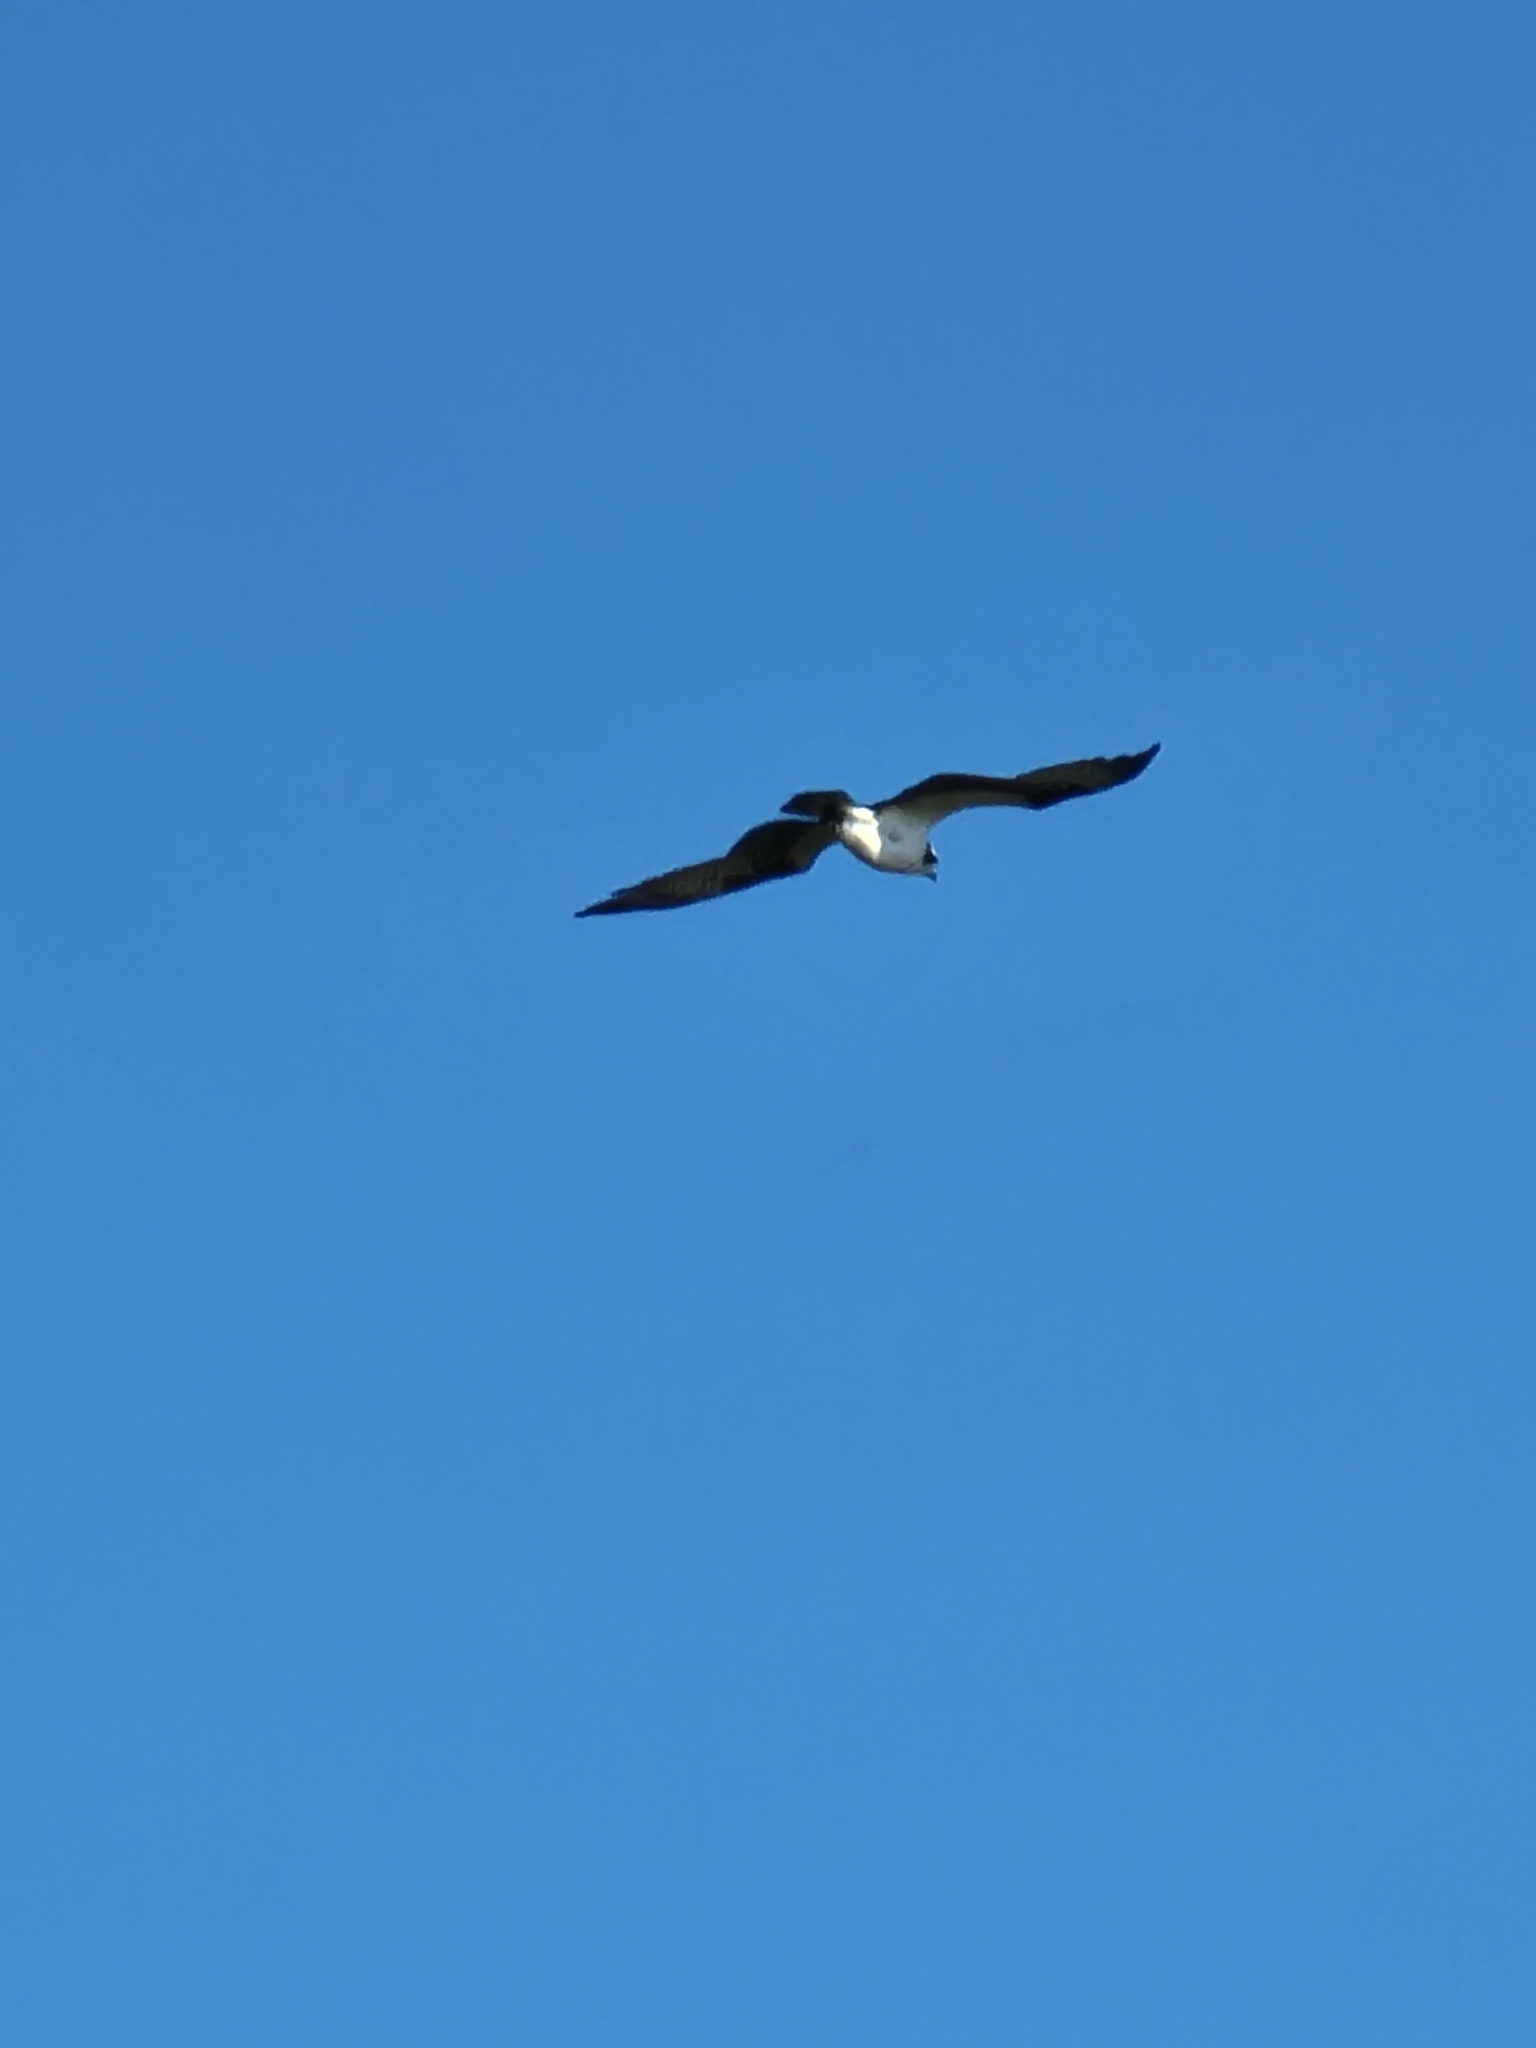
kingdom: Animalia
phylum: Chordata
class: Aves
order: Accipitriformes
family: Pandionidae
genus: Pandion
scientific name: Pandion haliaetus
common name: Osprey
